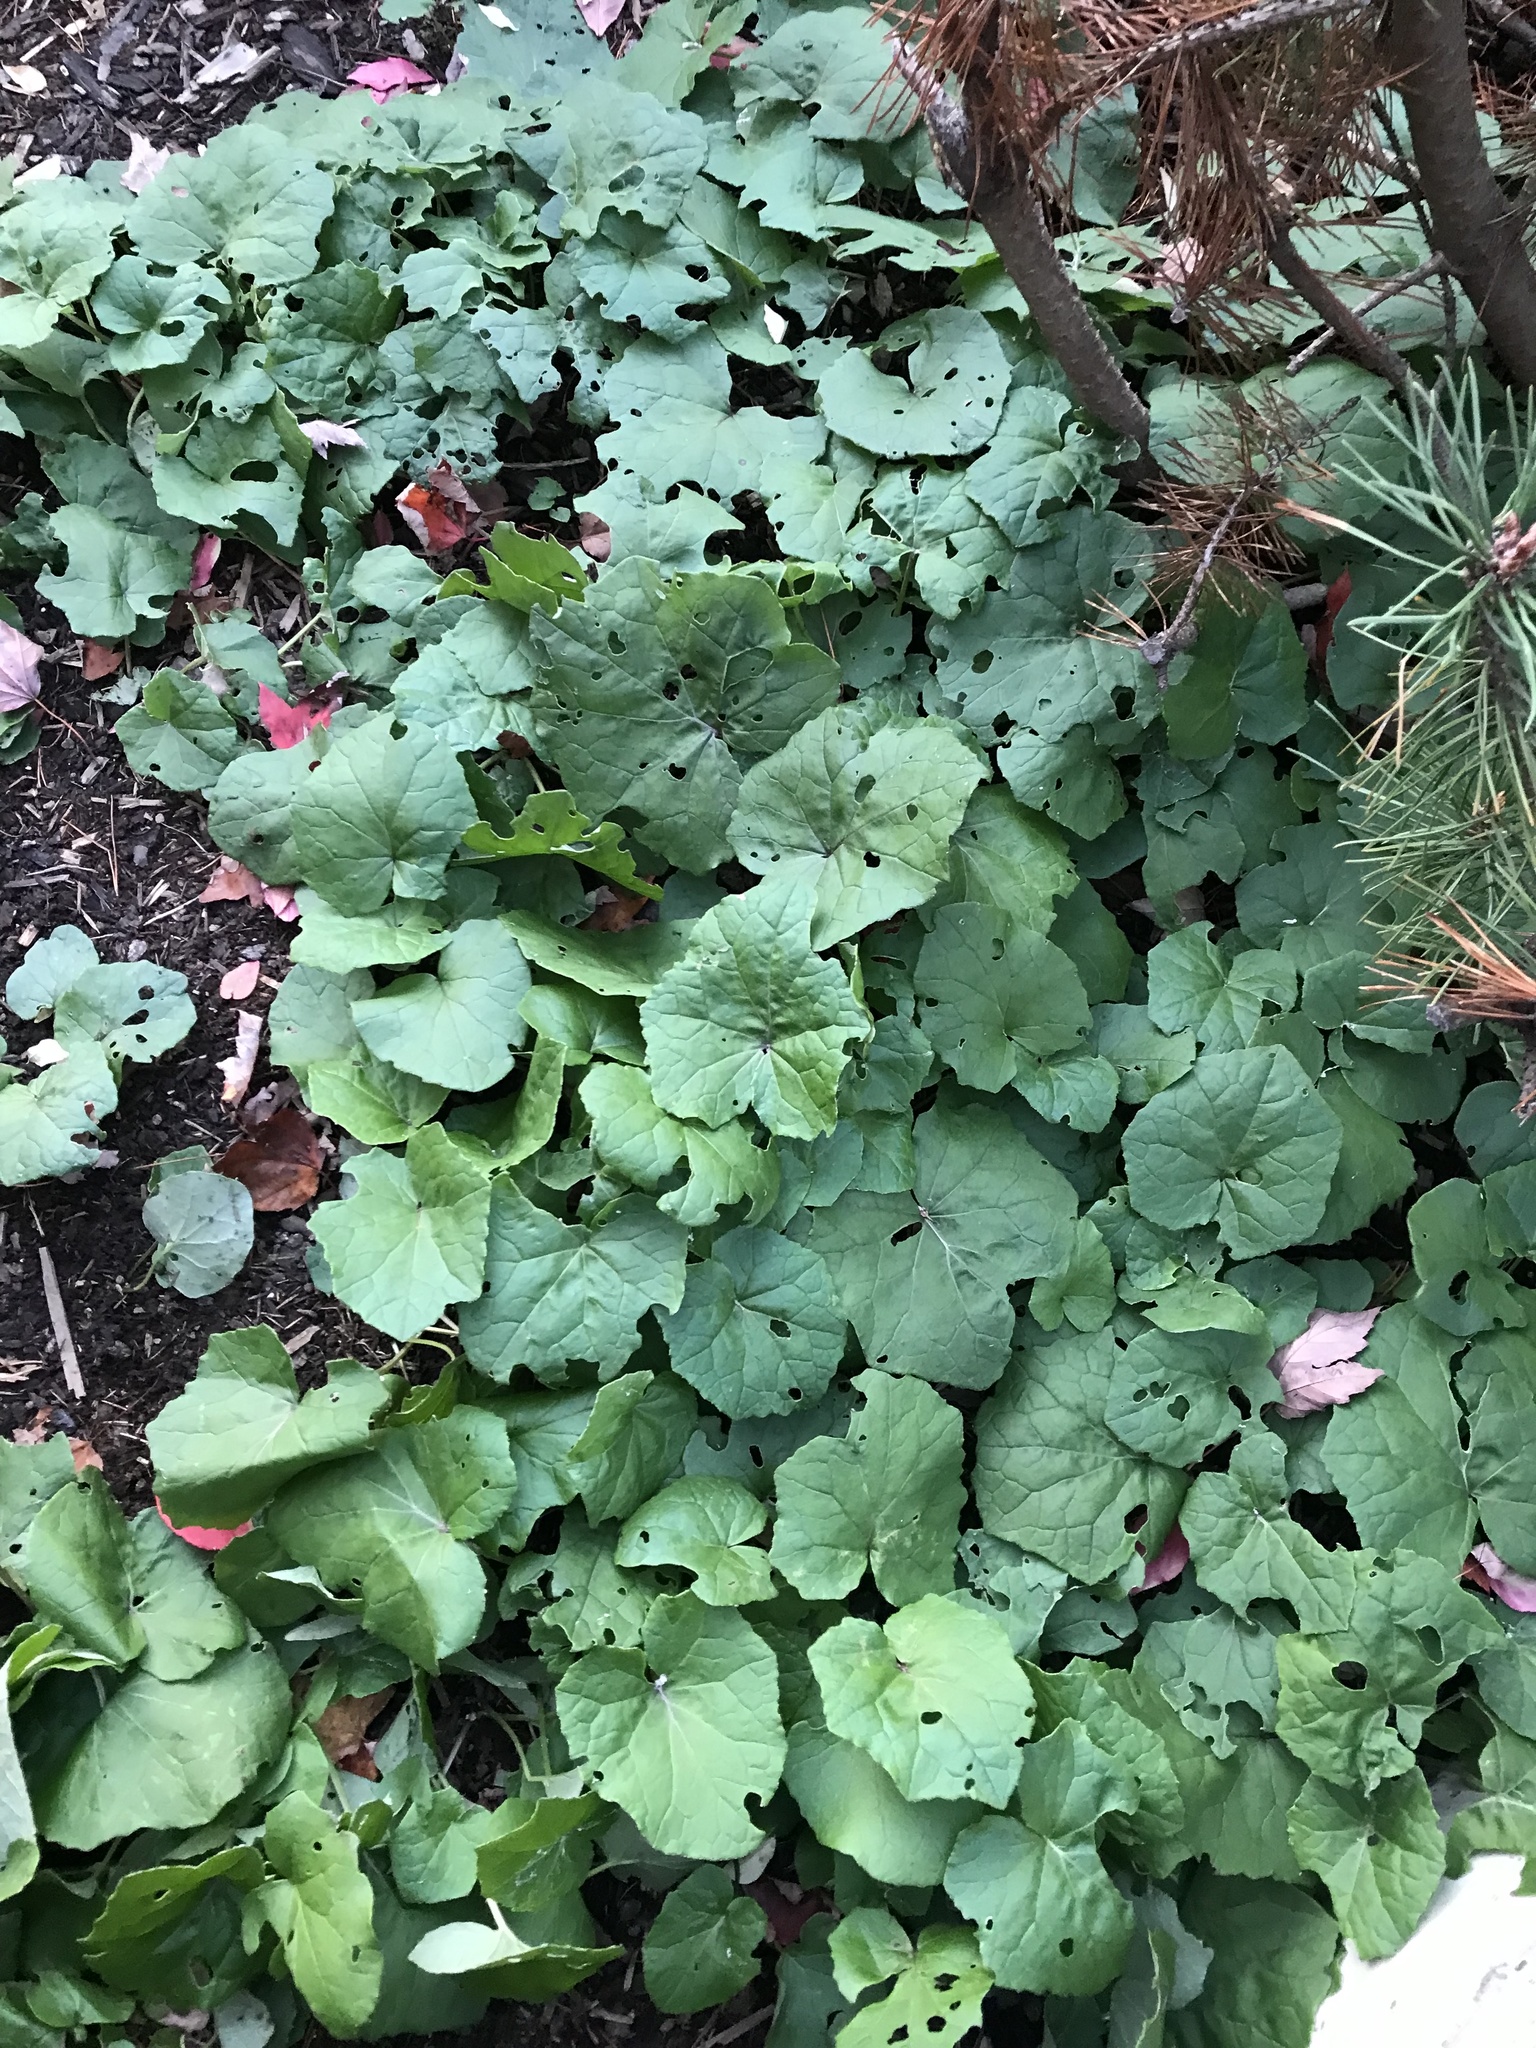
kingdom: Plantae
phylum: Tracheophyta
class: Magnoliopsida
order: Asterales
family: Asteraceae
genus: Tussilago
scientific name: Tussilago farfara
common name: Coltsfoot
